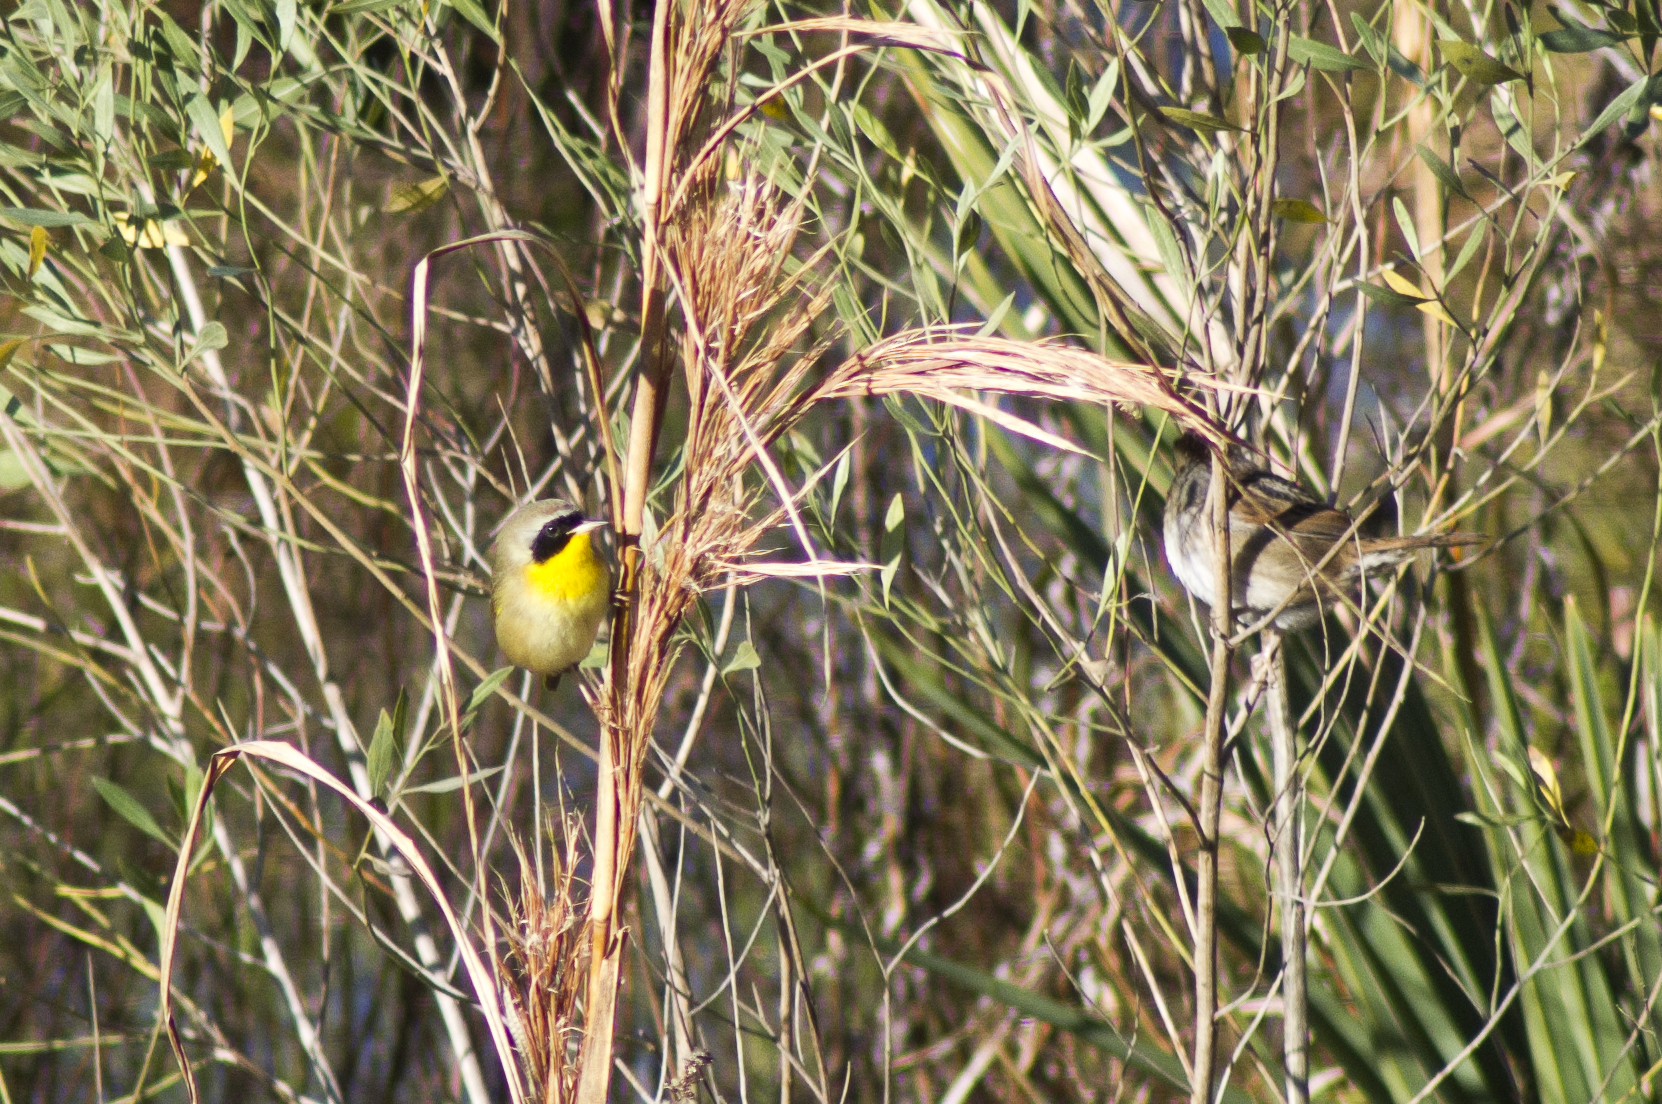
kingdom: Animalia
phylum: Chordata
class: Aves
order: Passeriformes
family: Parulidae
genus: Geothlypis
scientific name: Geothlypis trichas
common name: Common yellowthroat
